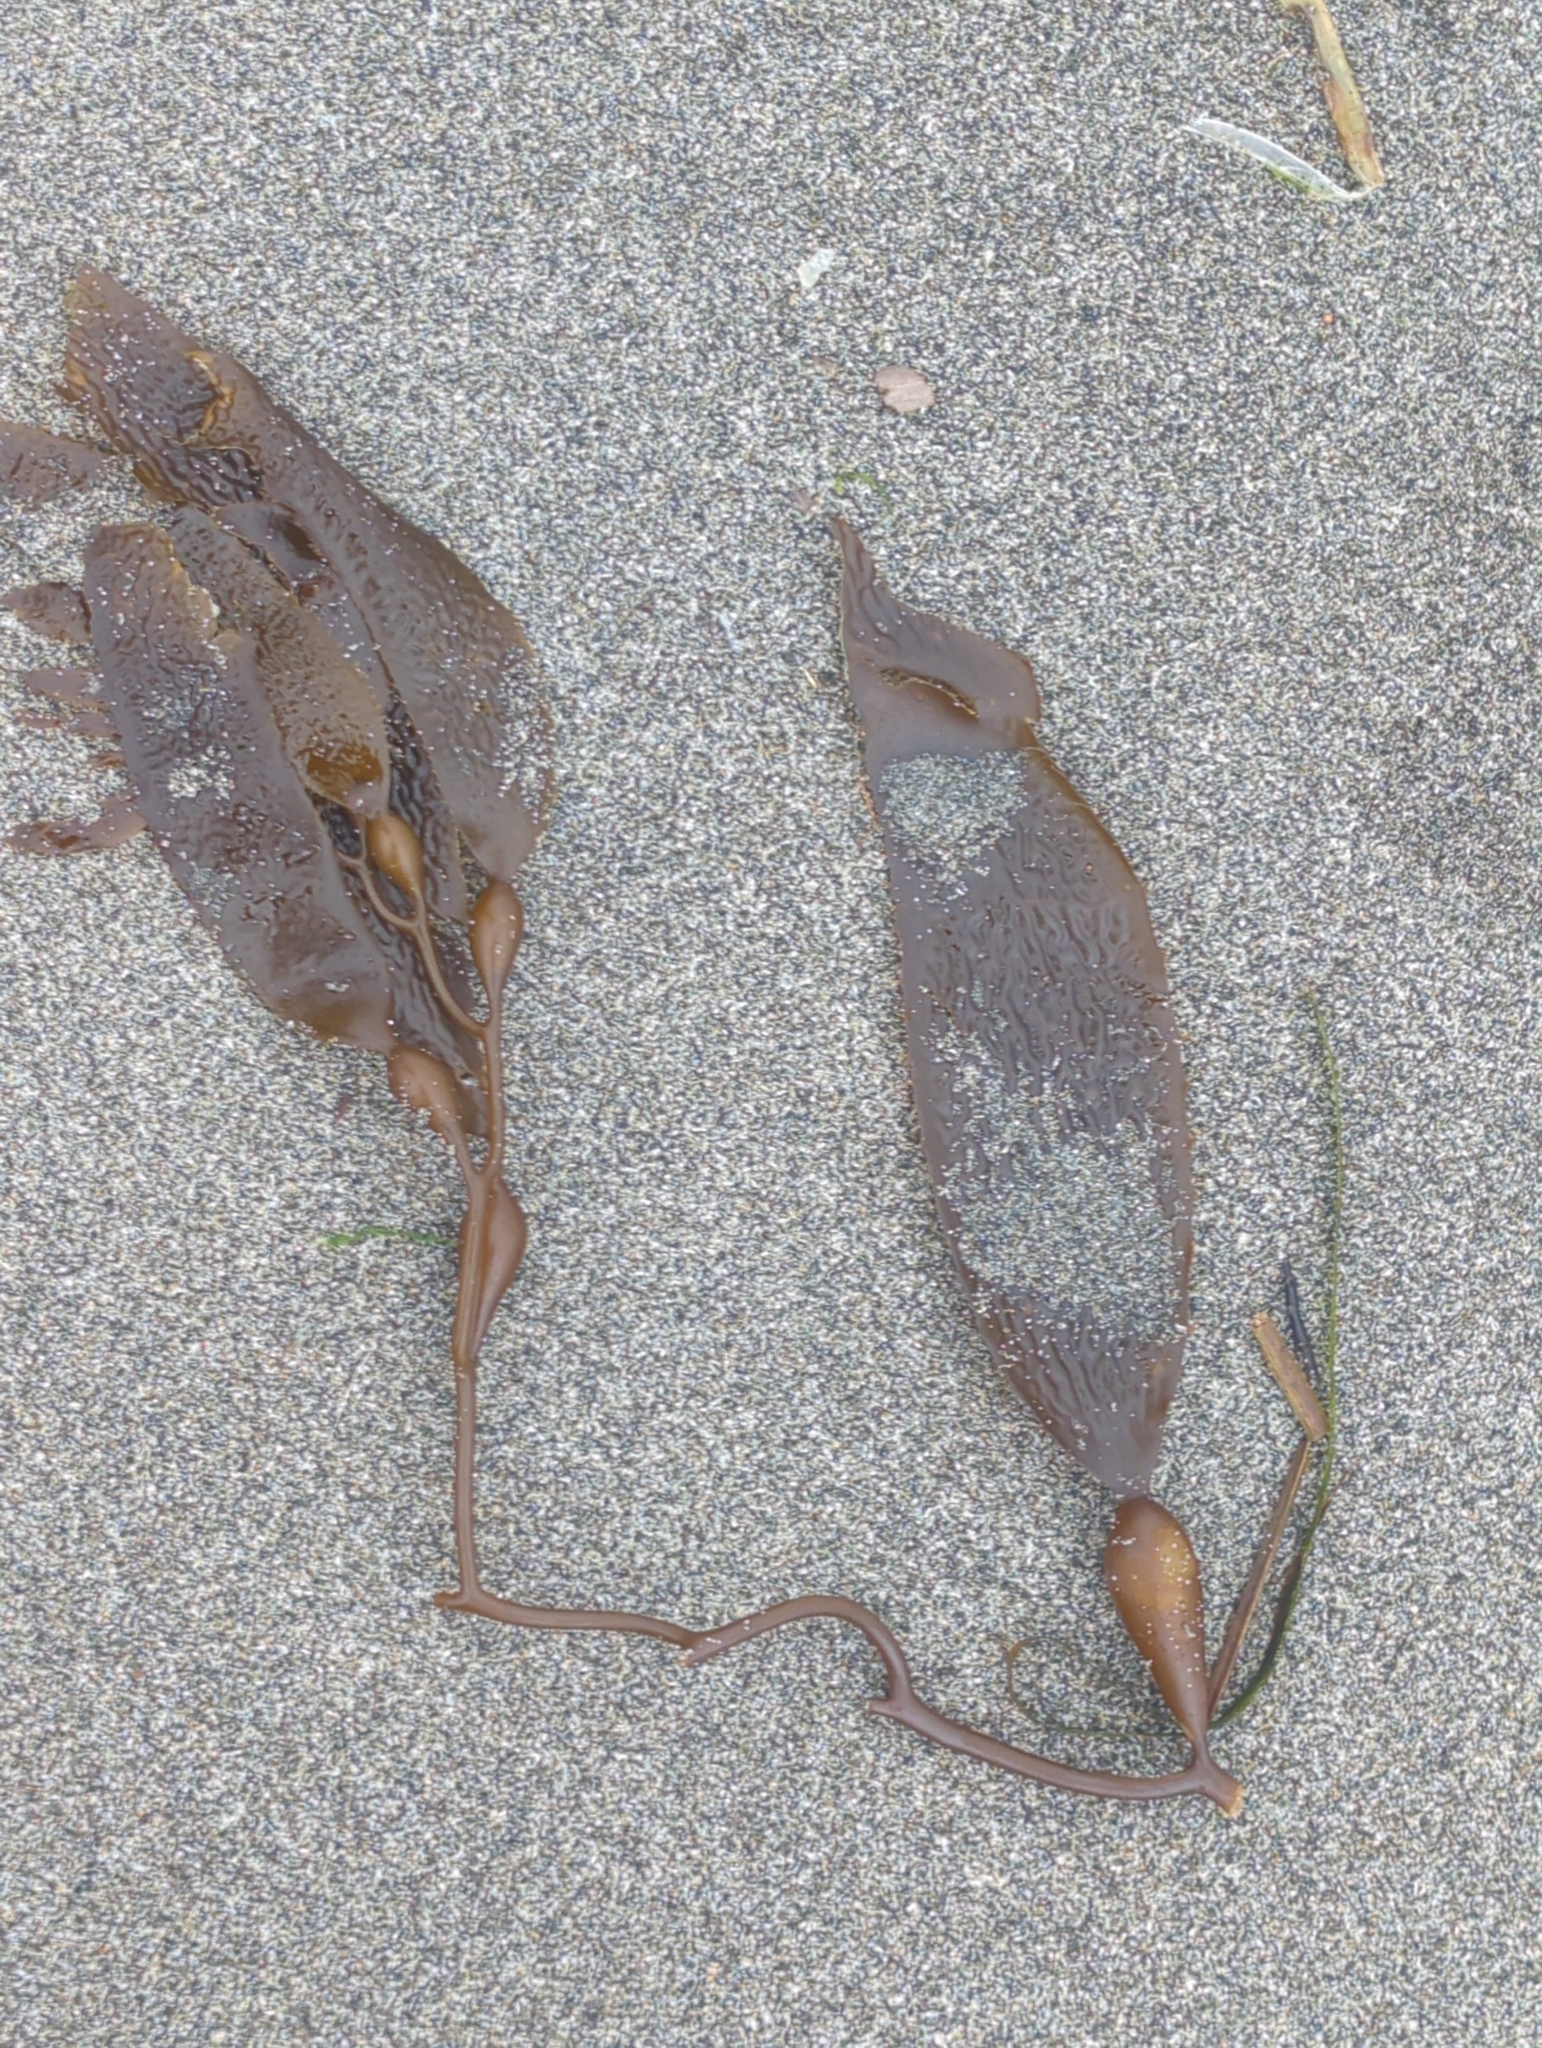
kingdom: Chromista
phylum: Ochrophyta
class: Phaeophyceae
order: Laminariales
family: Laminariaceae
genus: Macrocystis
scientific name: Macrocystis pyrifera
